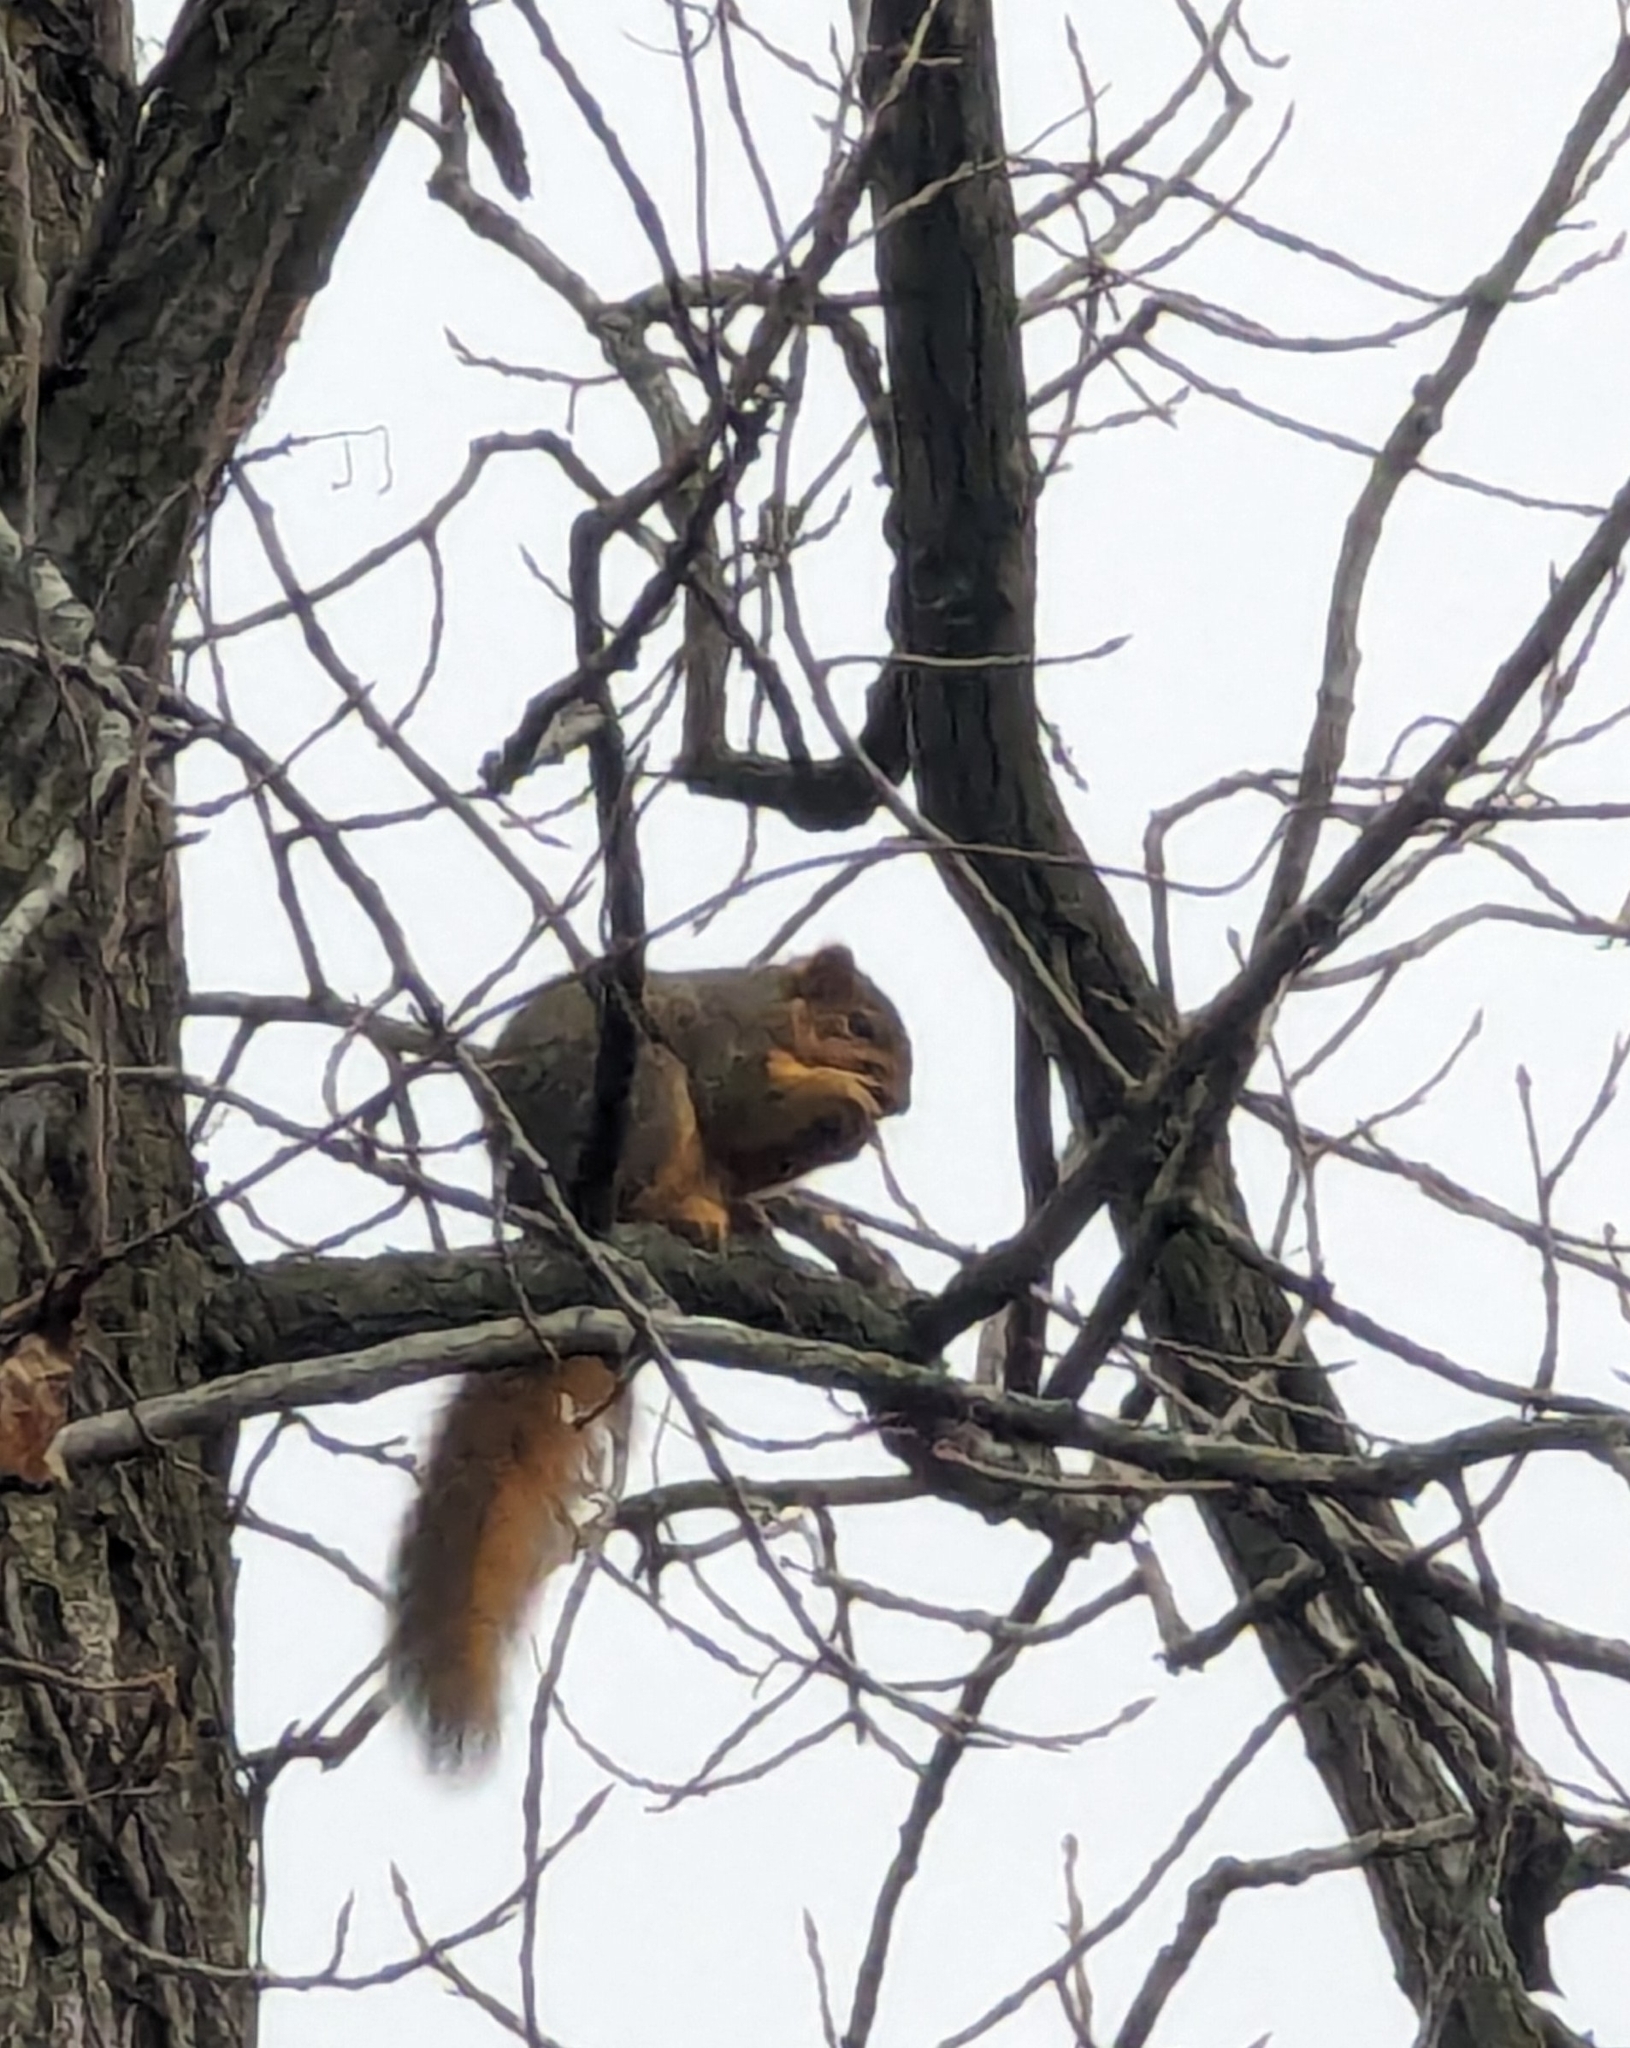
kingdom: Animalia
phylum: Chordata
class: Mammalia
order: Rodentia
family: Sciuridae
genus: Sciurus
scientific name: Sciurus niger
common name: Fox squirrel
